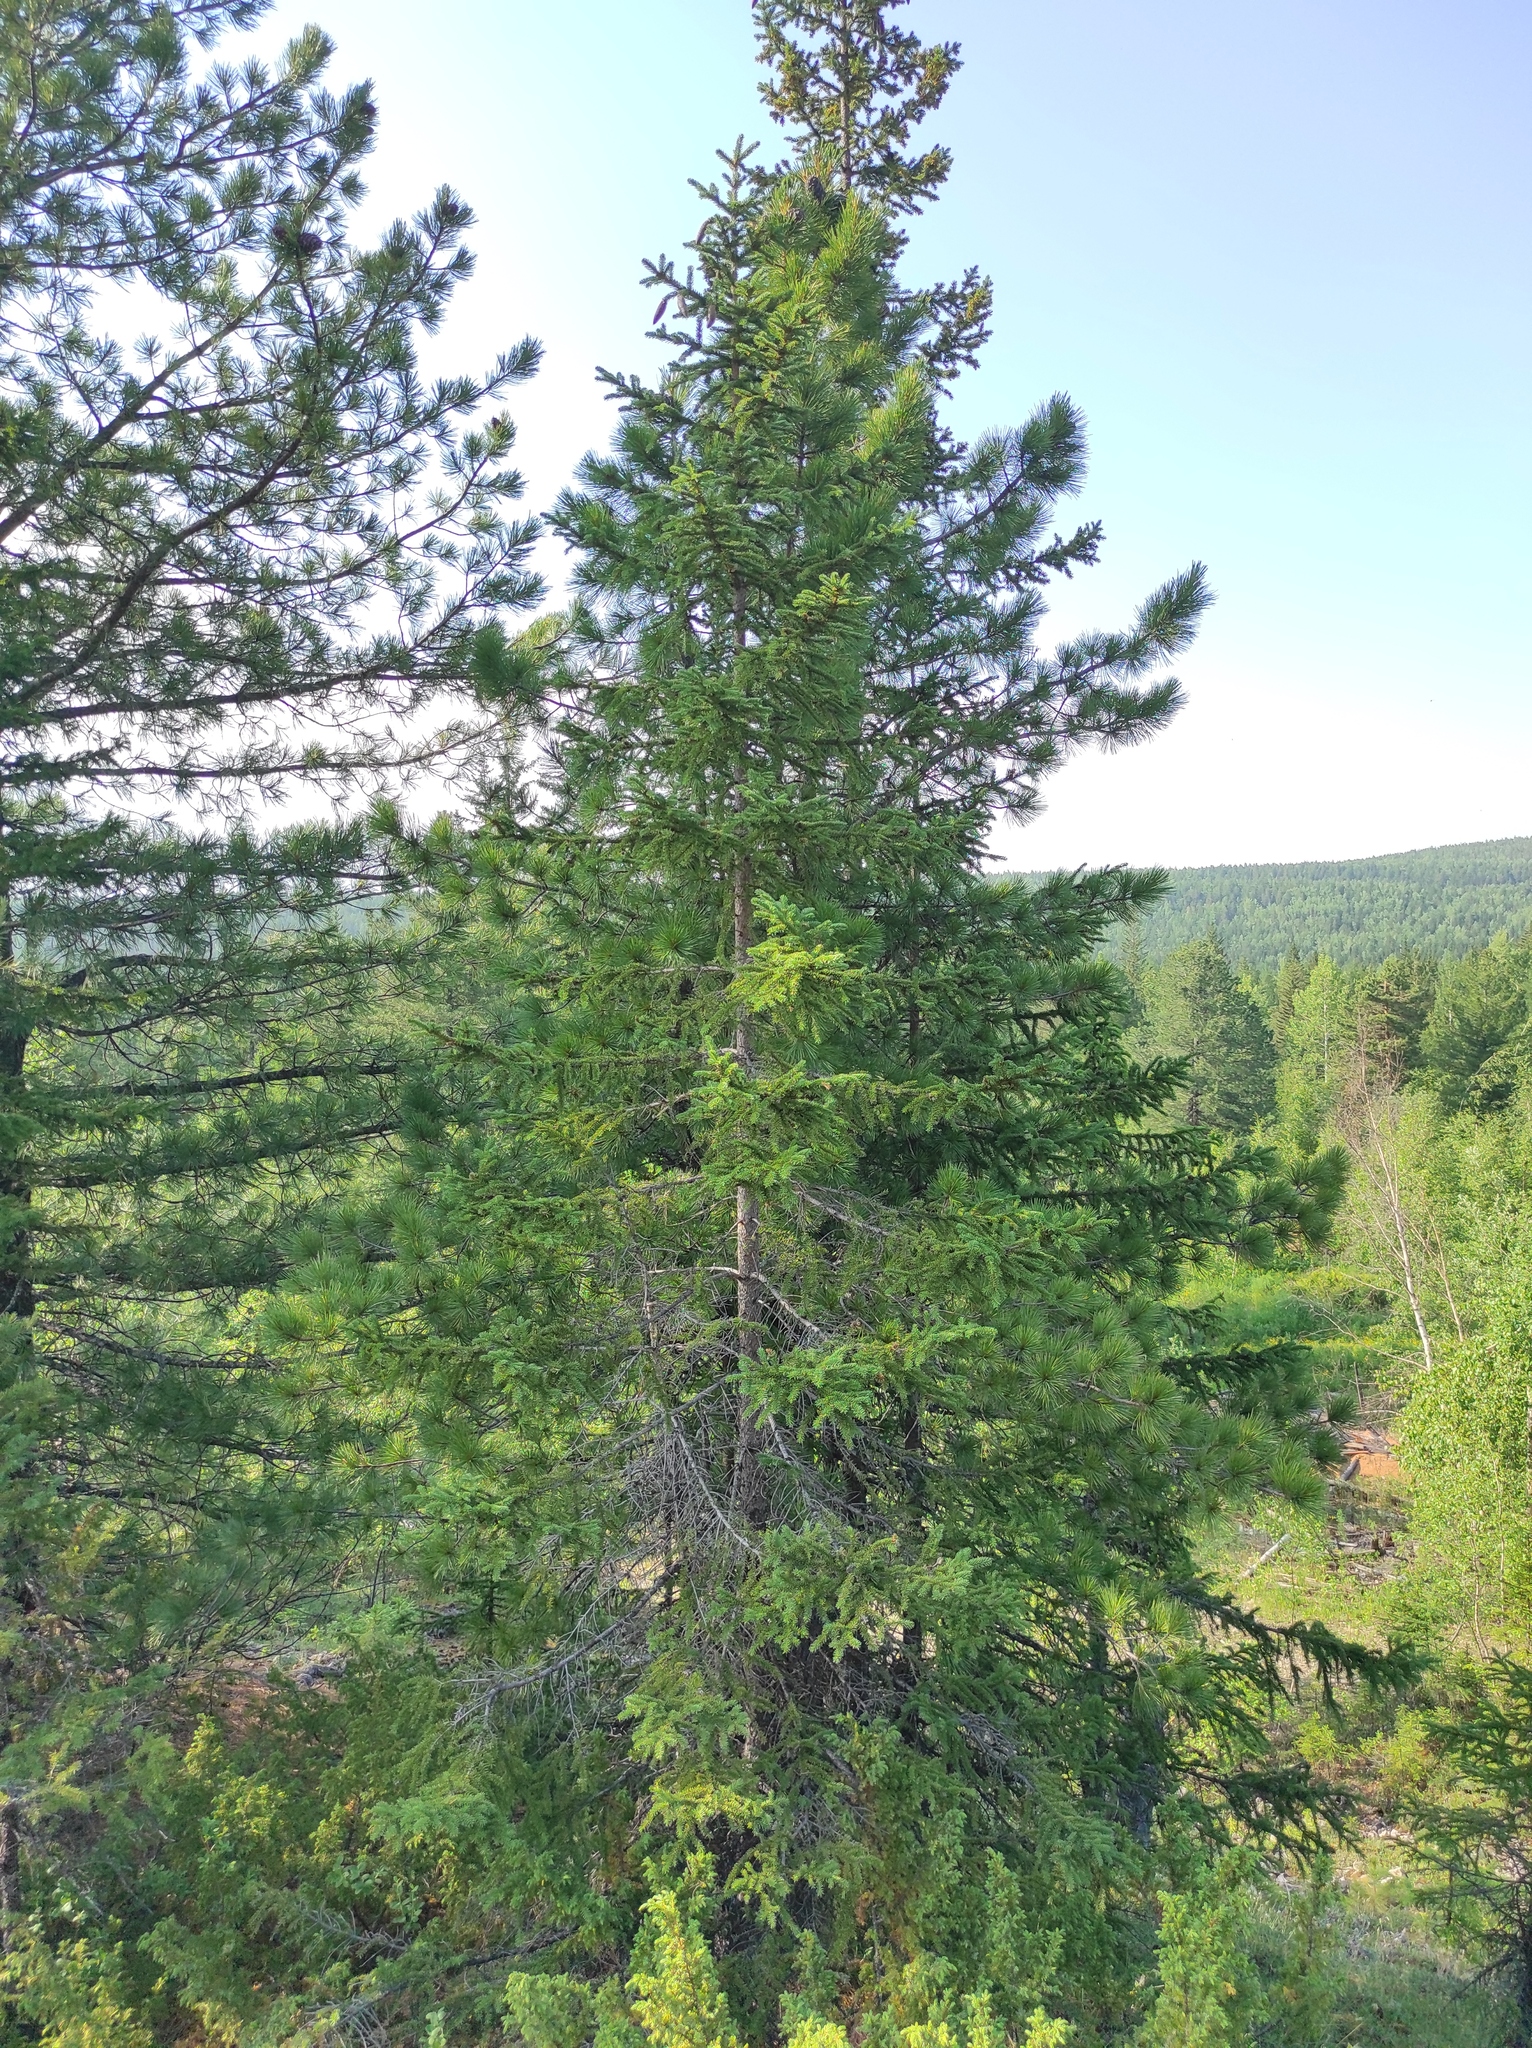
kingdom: Plantae
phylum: Tracheophyta
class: Pinopsida
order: Pinales
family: Pinaceae
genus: Pinus
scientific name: Pinus sibirica
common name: Siberian pine
